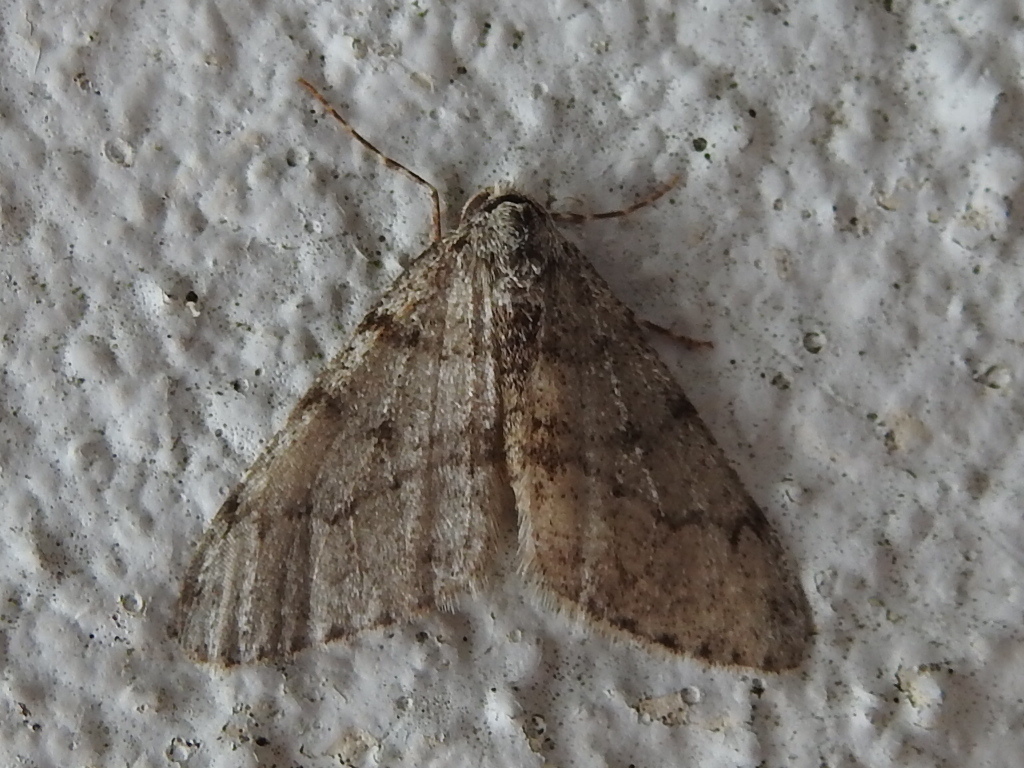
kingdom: Animalia
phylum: Arthropoda
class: Insecta
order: Lepidoptera
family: Geometridae
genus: Phigalia
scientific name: Phigalia strigataria
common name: Small phigalia
